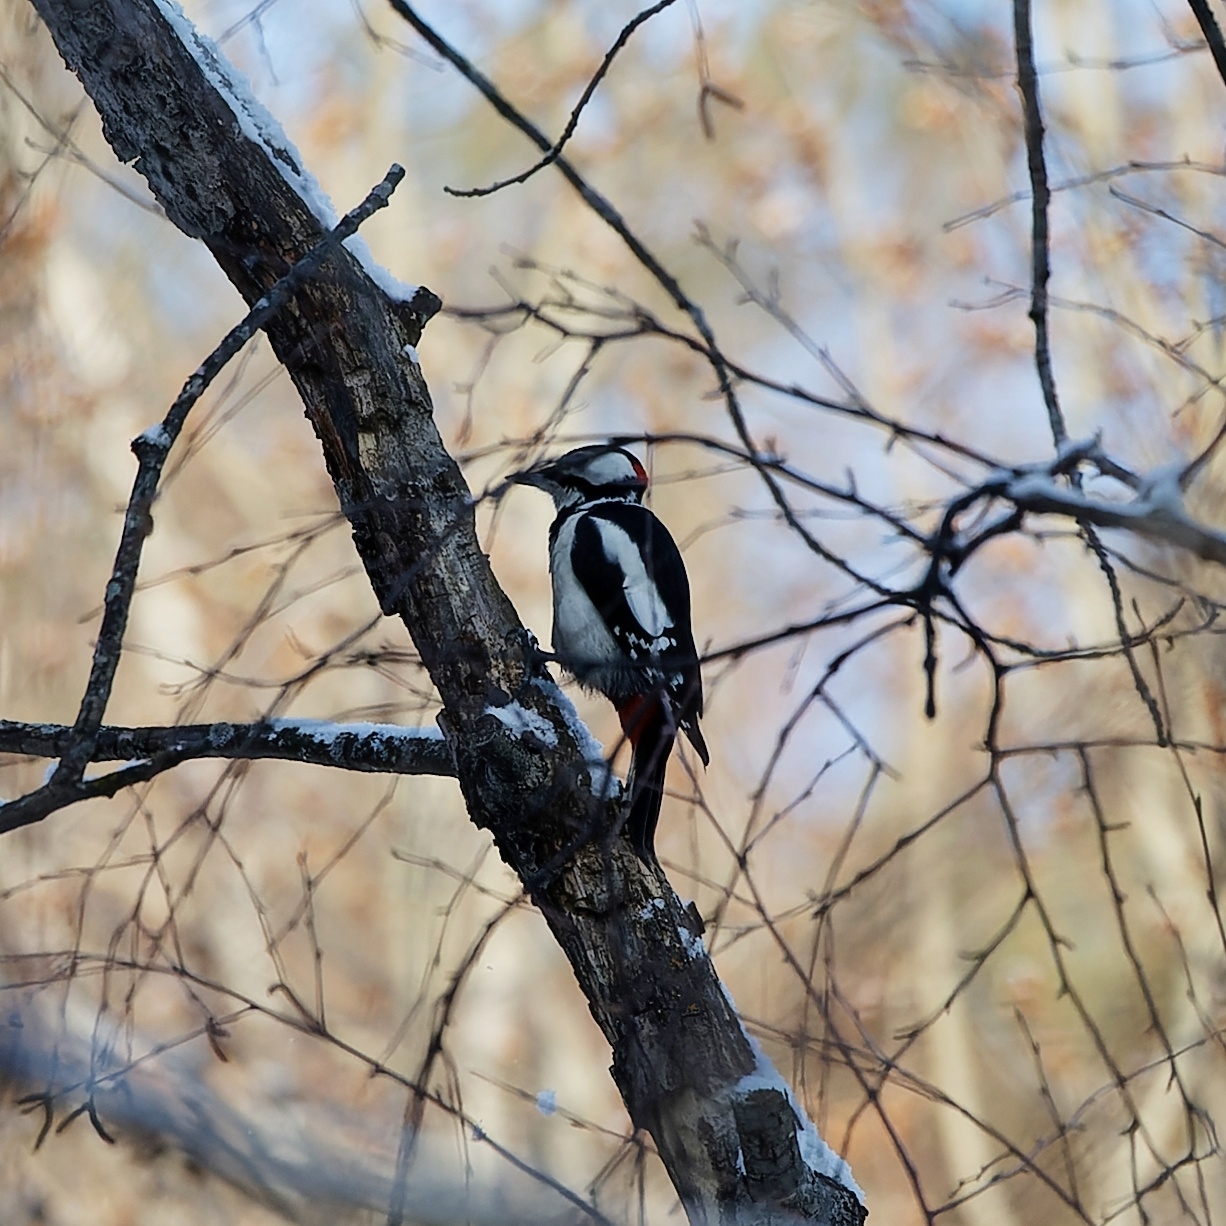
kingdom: Animalia
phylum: Chordata
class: Aves
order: Piciformes
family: Picidae
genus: Dendrocopos
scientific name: Dendrocopos major
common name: Great spotted woodpecker
